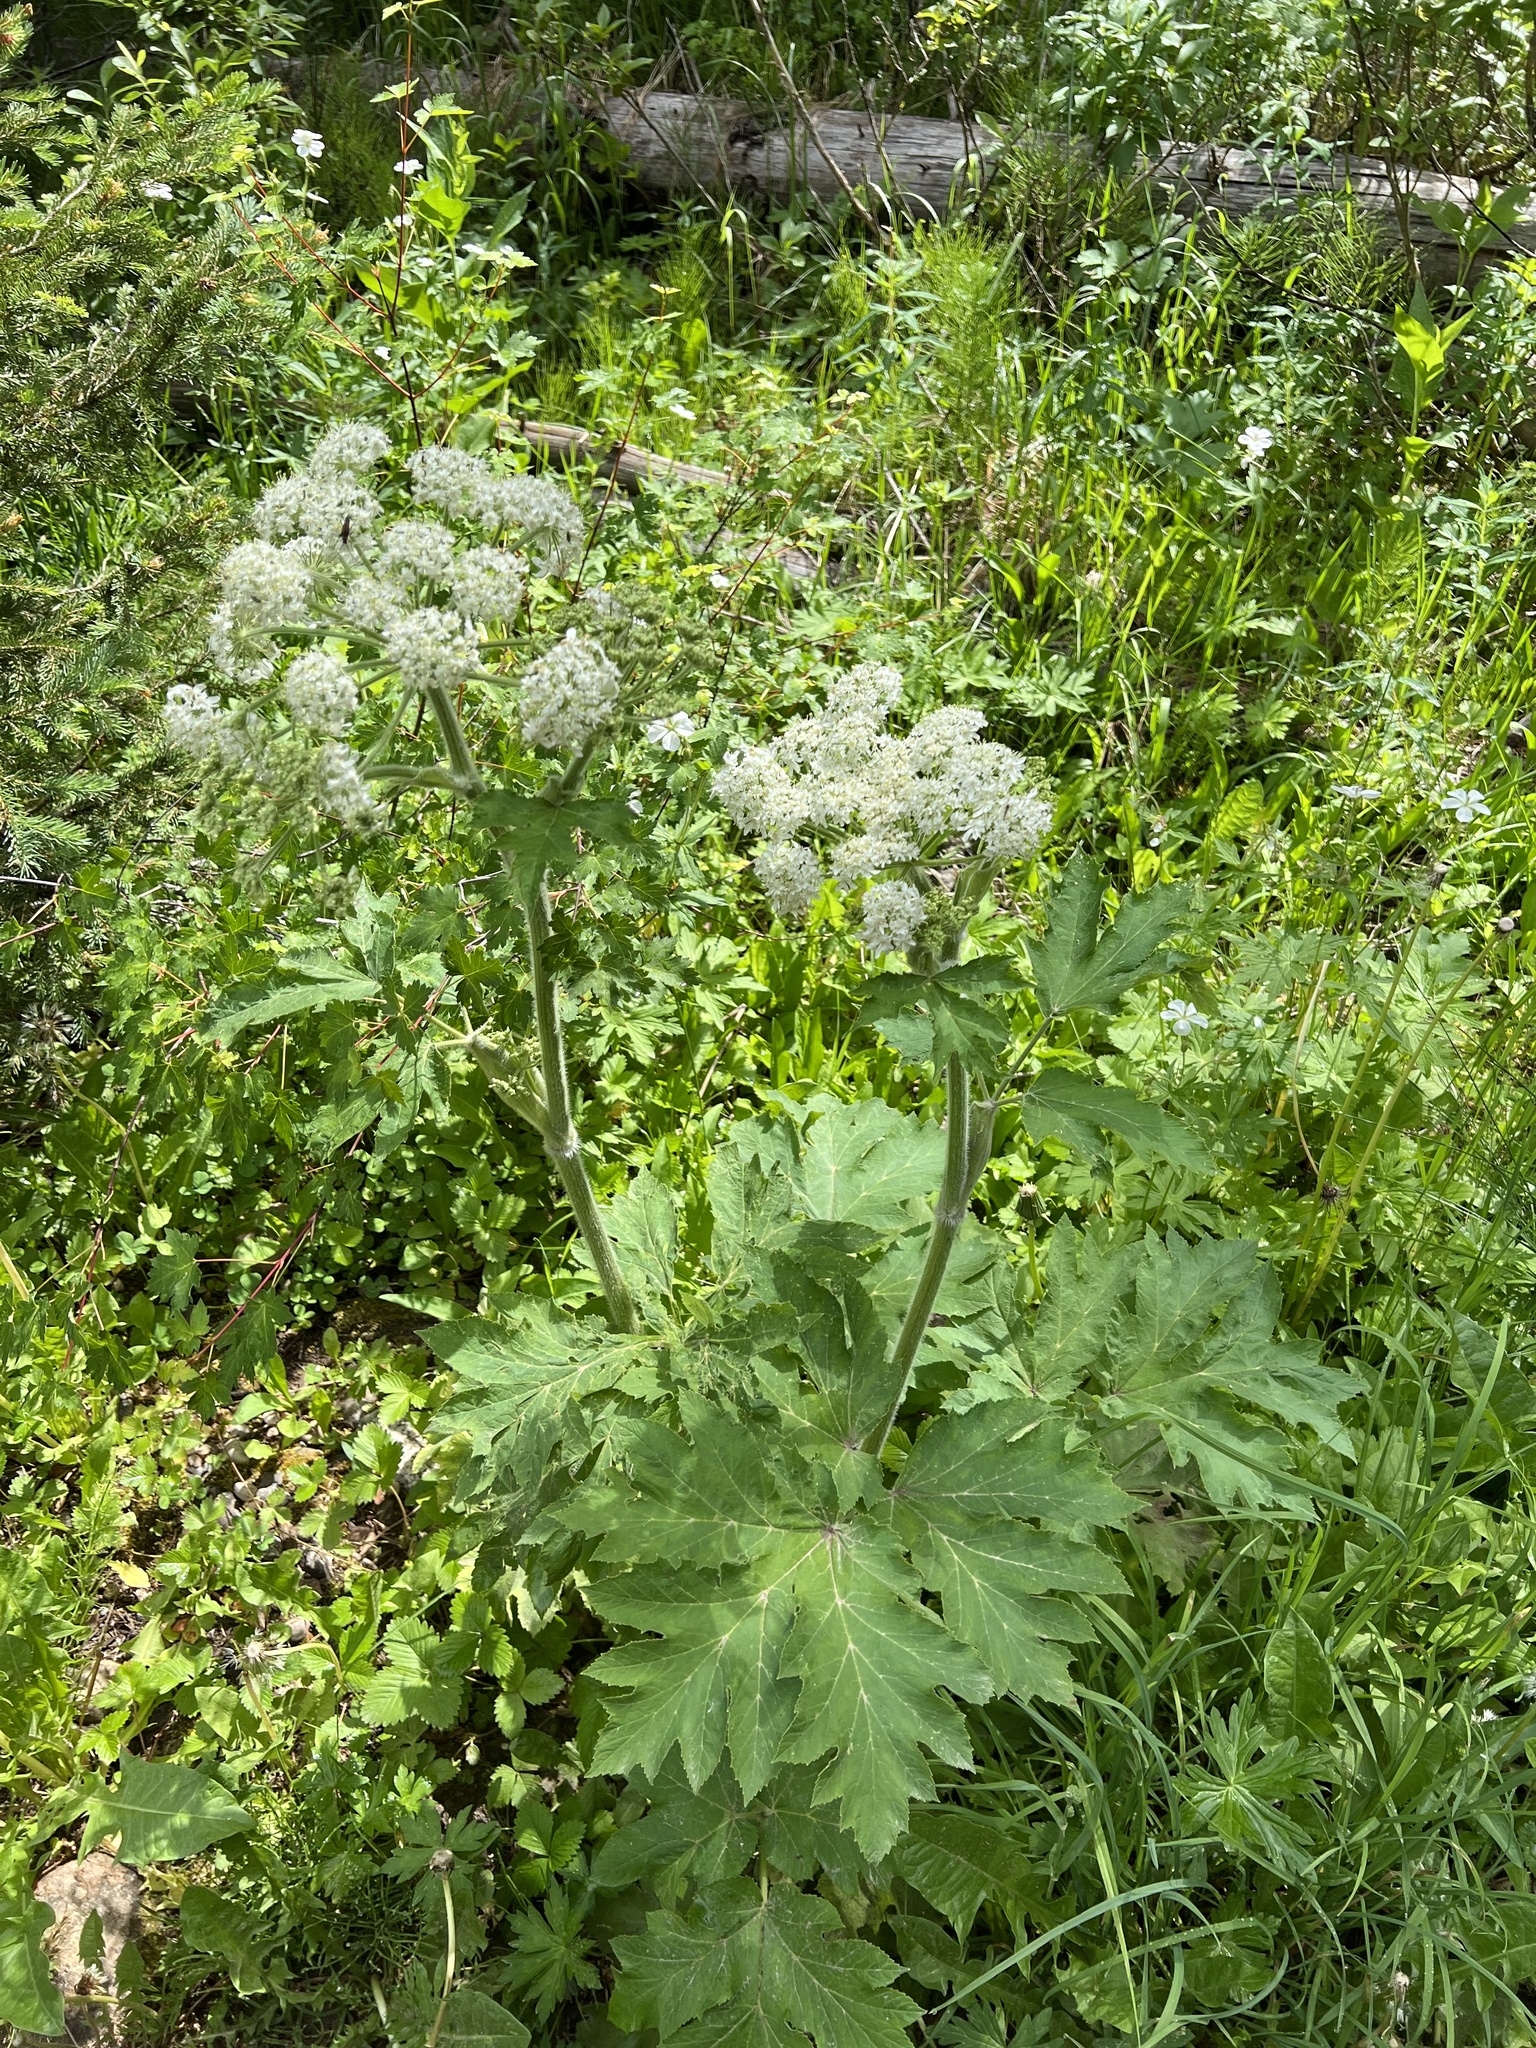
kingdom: Plantae
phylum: Tracheophyta
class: Magnoliopsida
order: Apiales
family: Apiaceae
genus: Heracleum
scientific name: Heracleum maximum
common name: American cow parsnip
